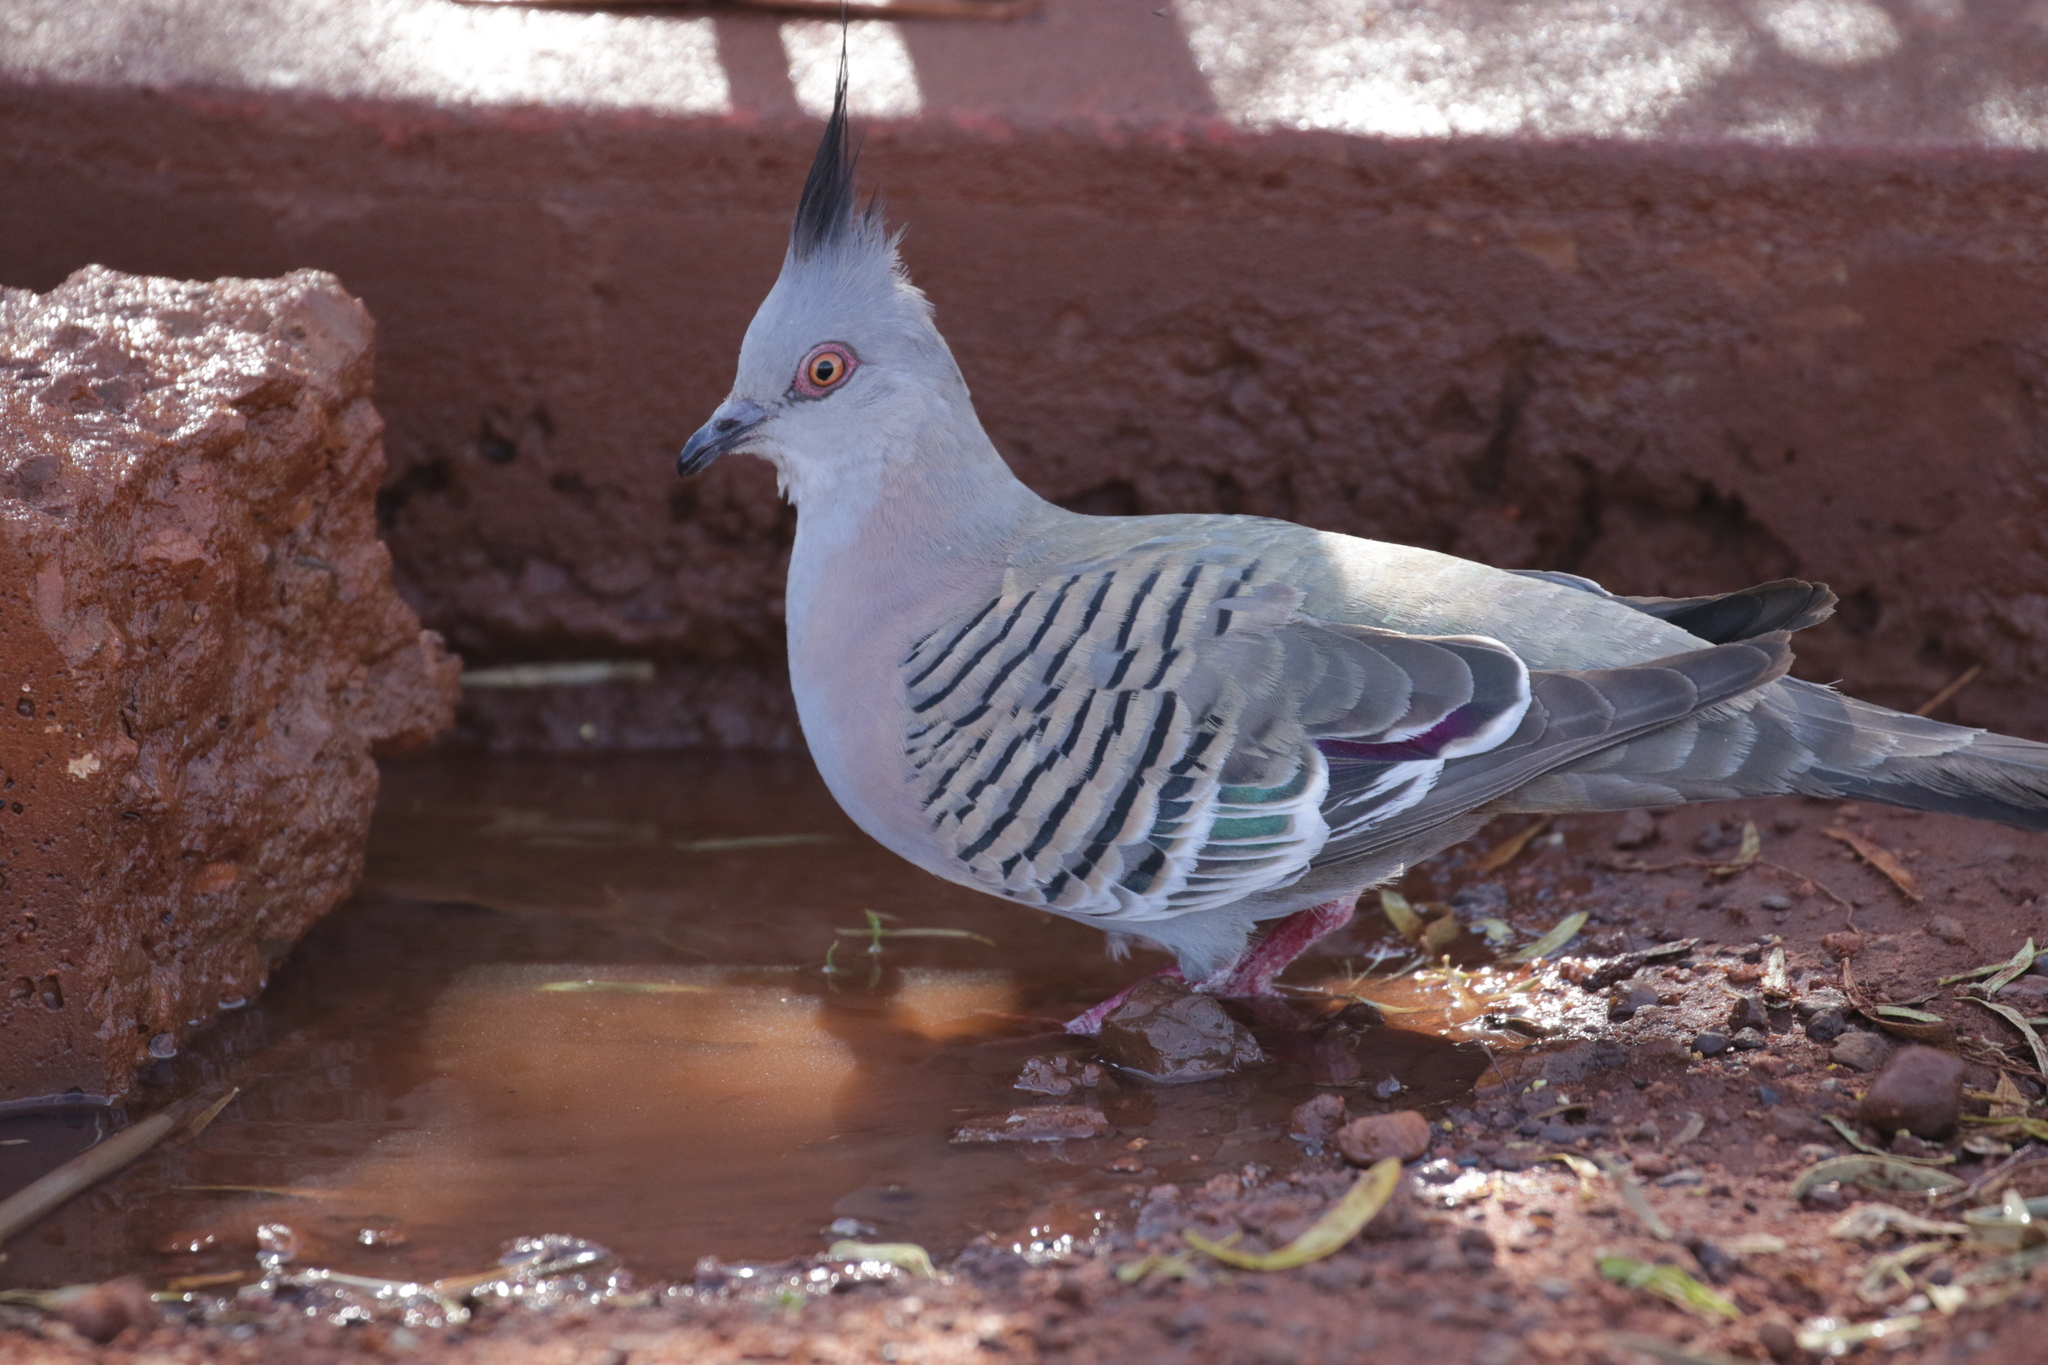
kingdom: Animalia
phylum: Chordata
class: Aves
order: Columbiformes
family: Columbidae
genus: Ocyphaps
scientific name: Ocyphaps lophotes
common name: Crested pigeon
